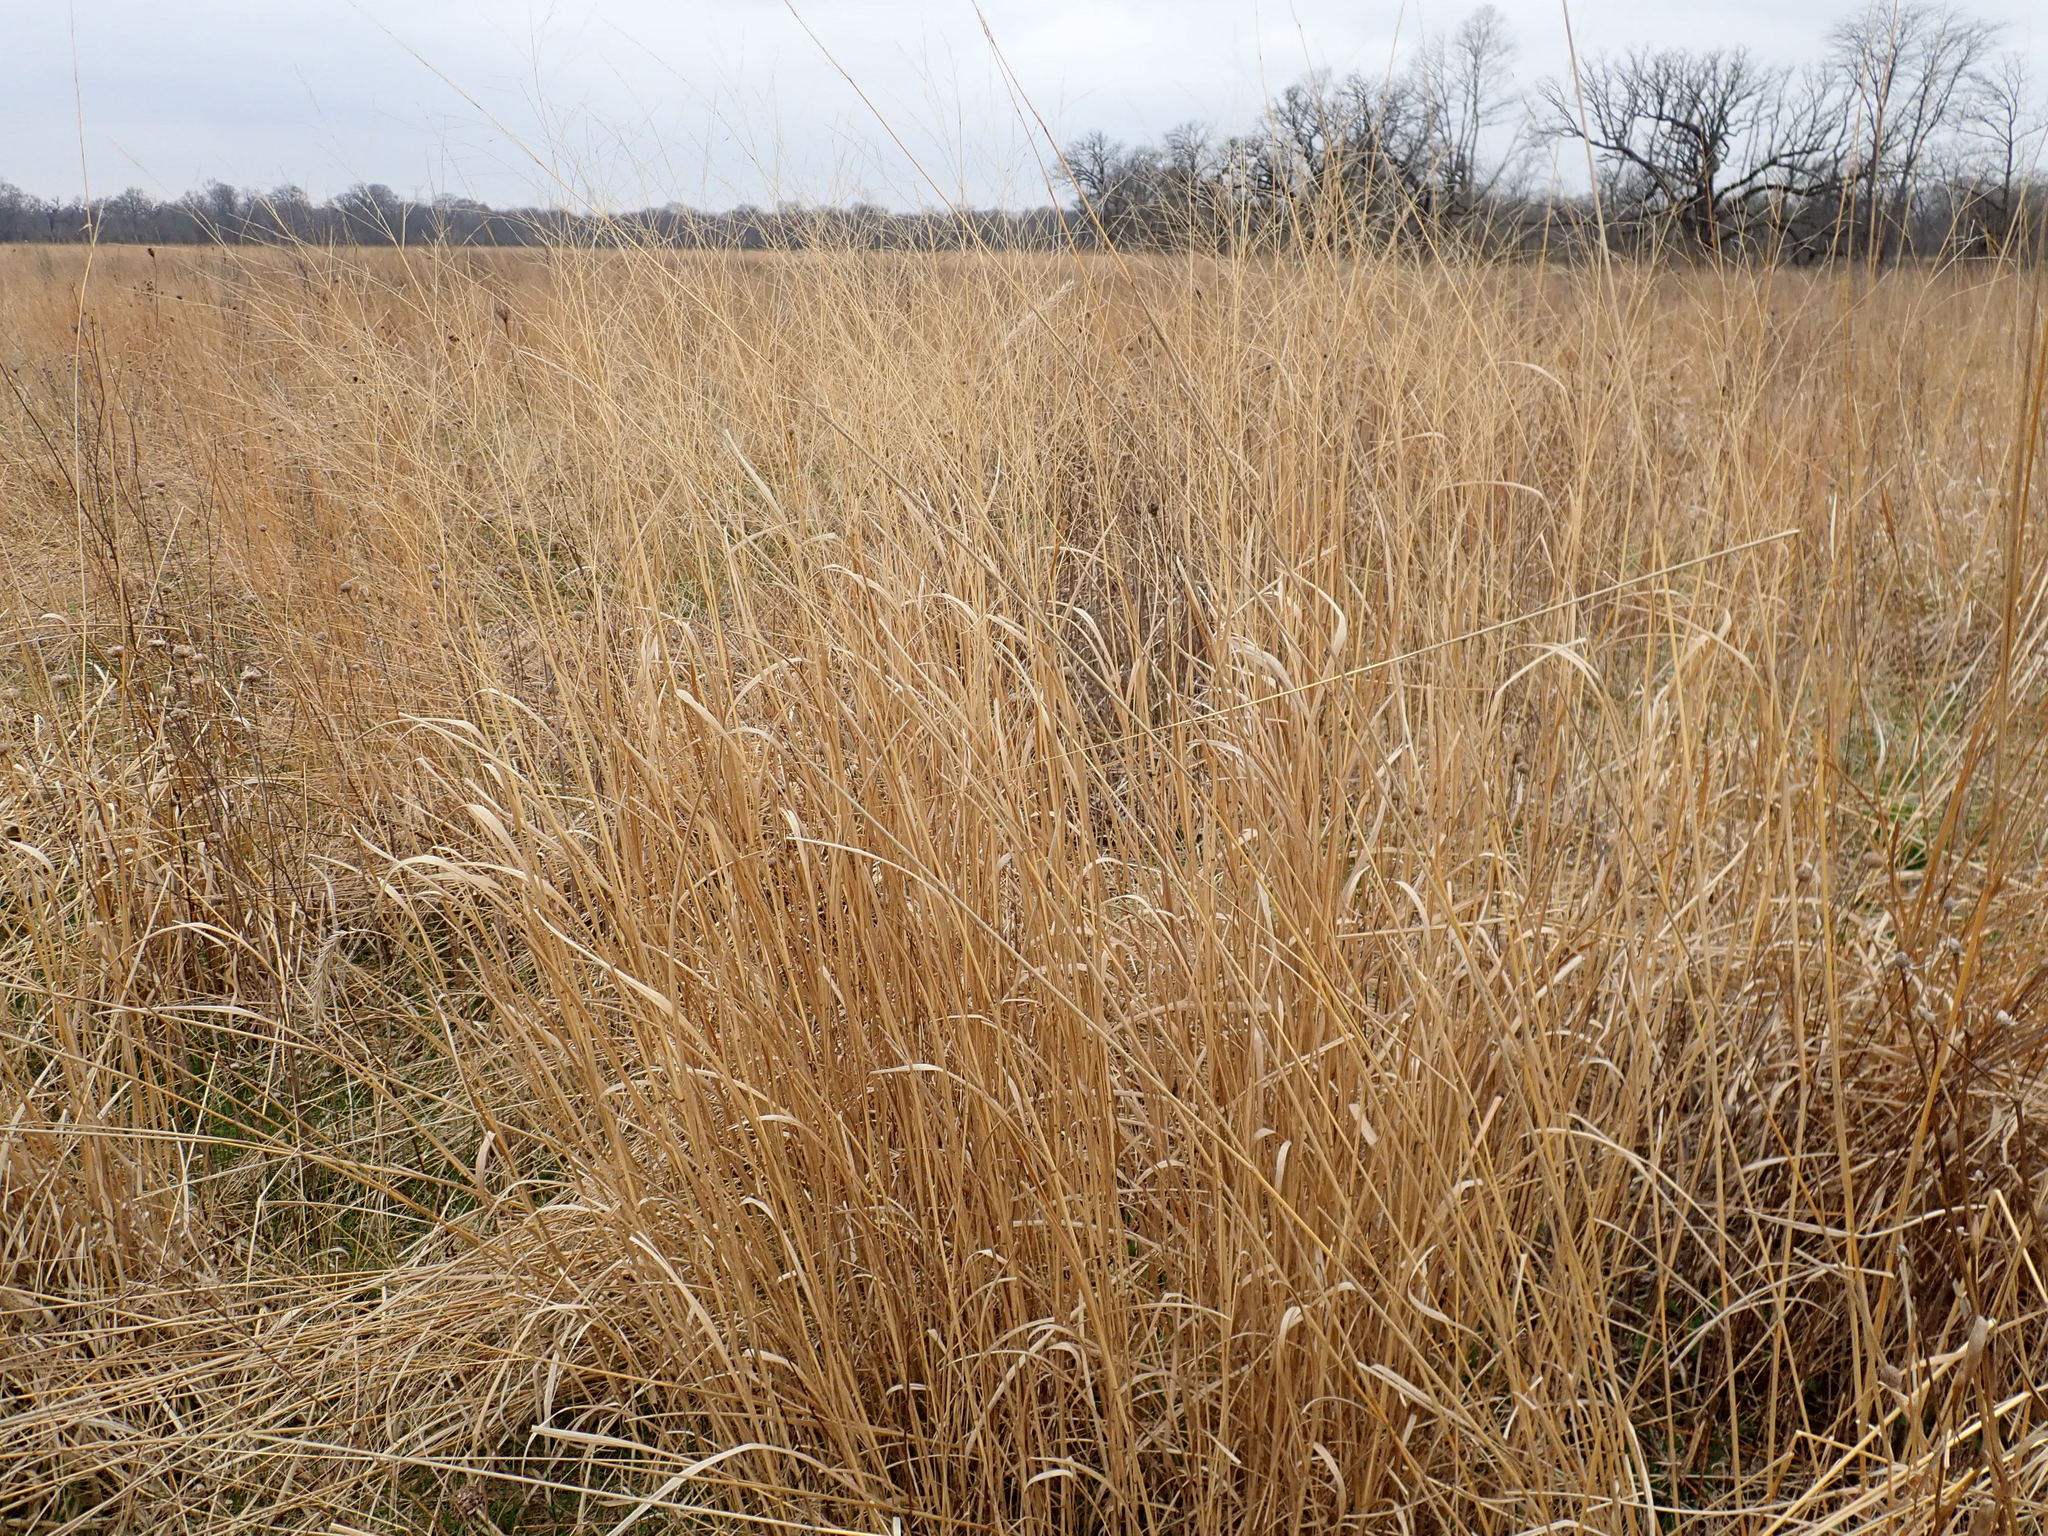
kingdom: Plantae
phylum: Tracheophyta
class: Liliopsida
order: Poales
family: Poaceae
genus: Panicum
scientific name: Panicum virgatum
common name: Switchgrass
